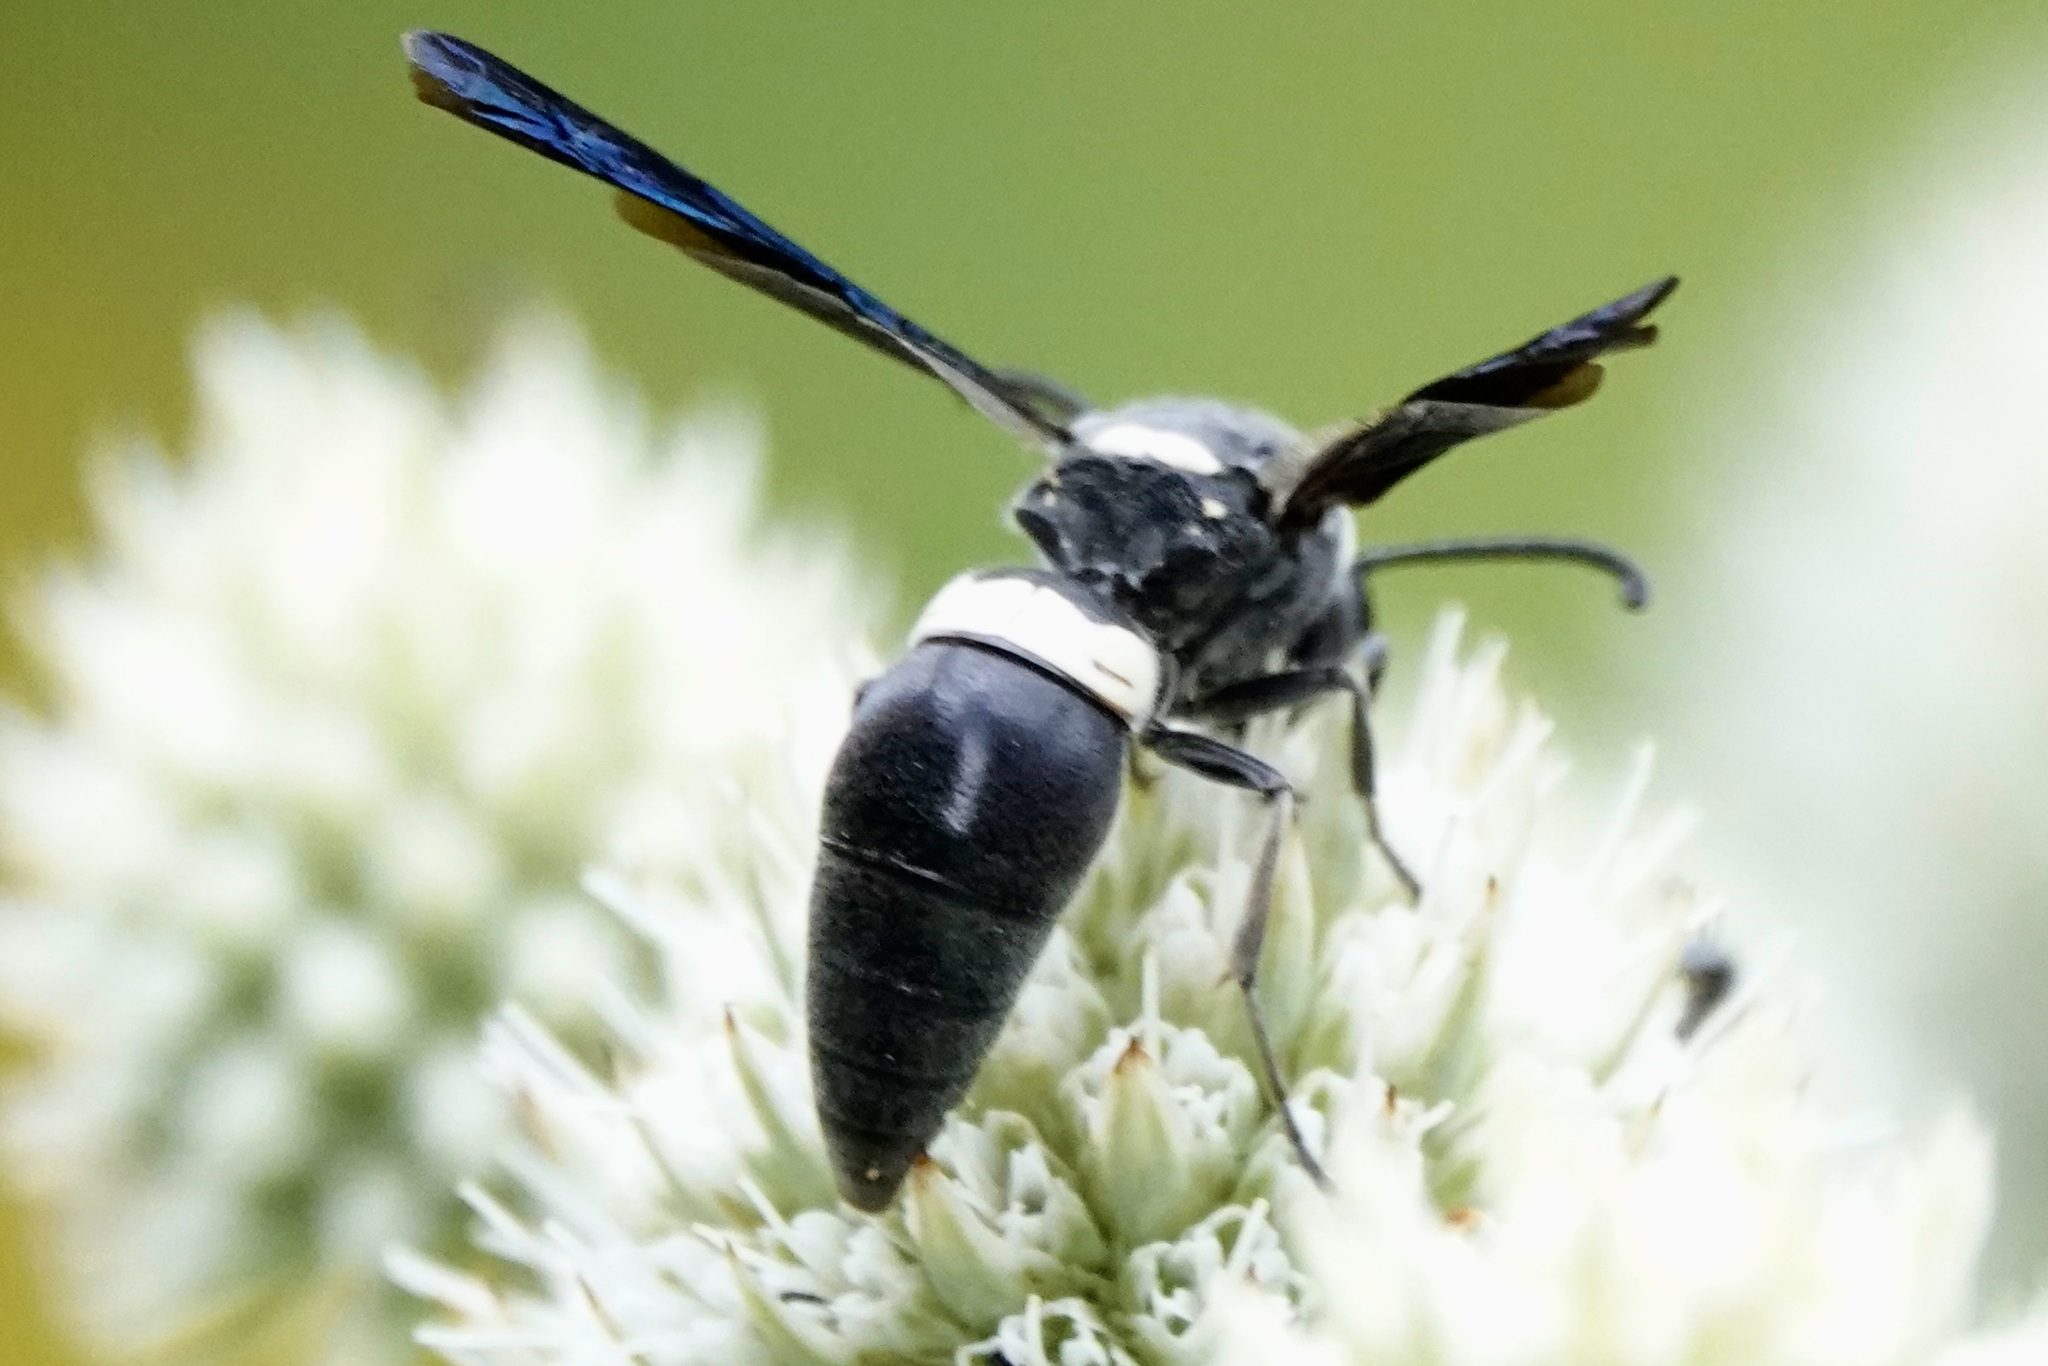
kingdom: Animalia
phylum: Arthropoda
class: Insecta
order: Hymenoptera
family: Eumenidae
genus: Monobia
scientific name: Monobia quadridens
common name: Four-toothed mason wasp
